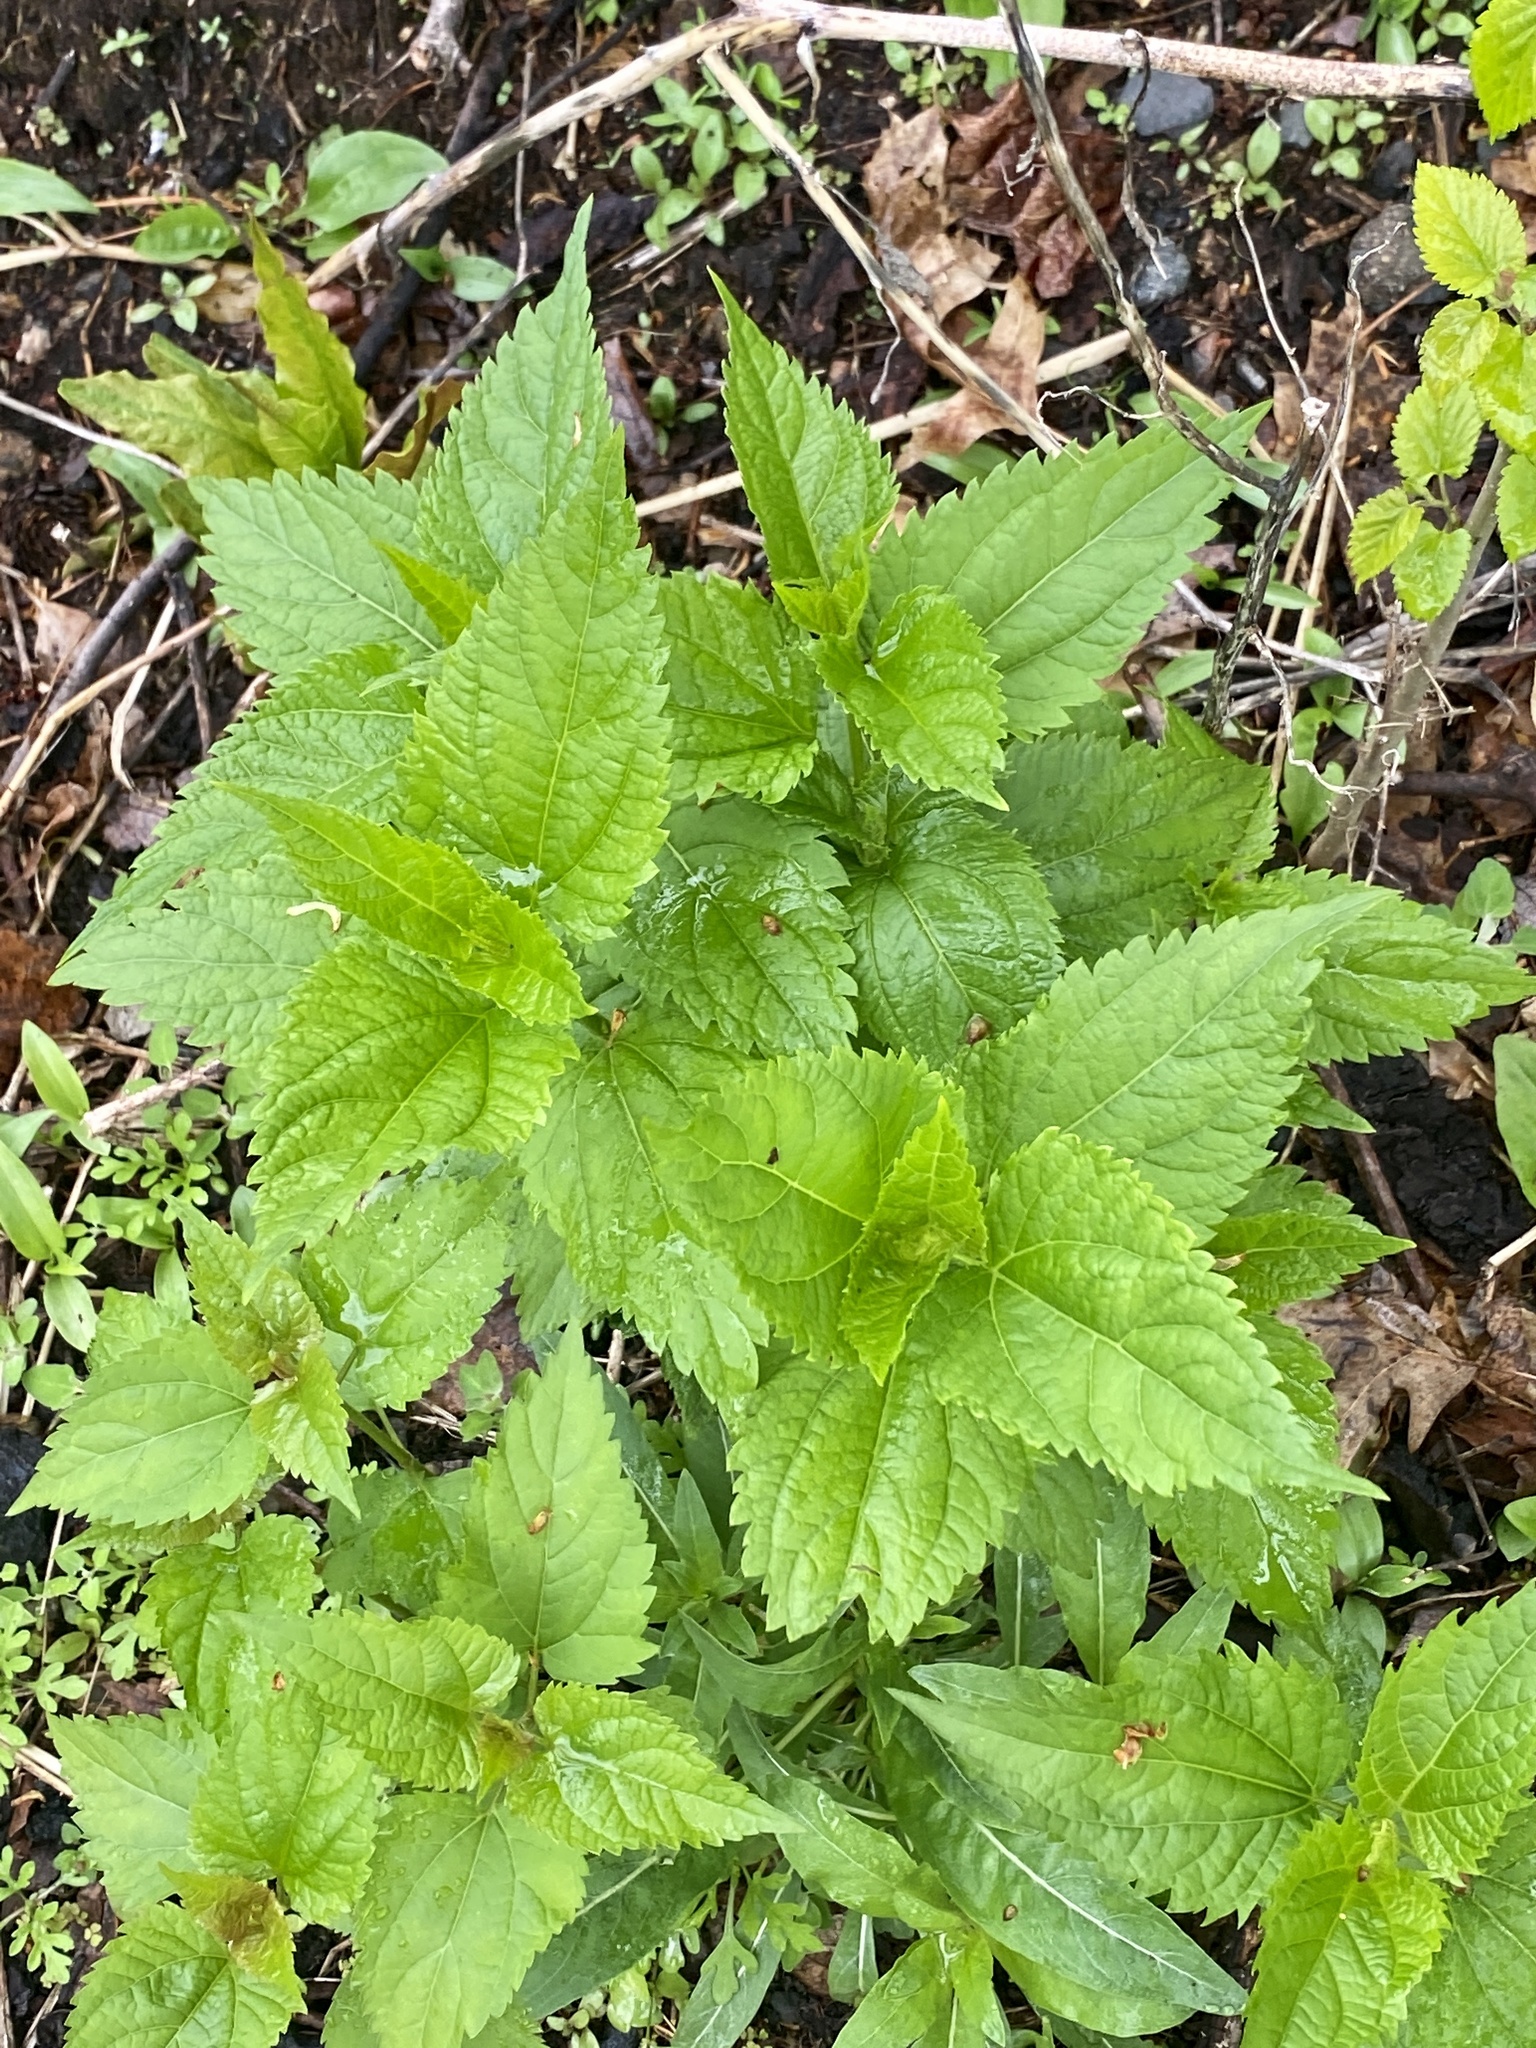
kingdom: Plantae
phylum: Tracheophyta
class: Magnoliopsida
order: Asterales
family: Asteraceae
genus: Ageratina
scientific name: Ageratina altissima
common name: White snakeroot
